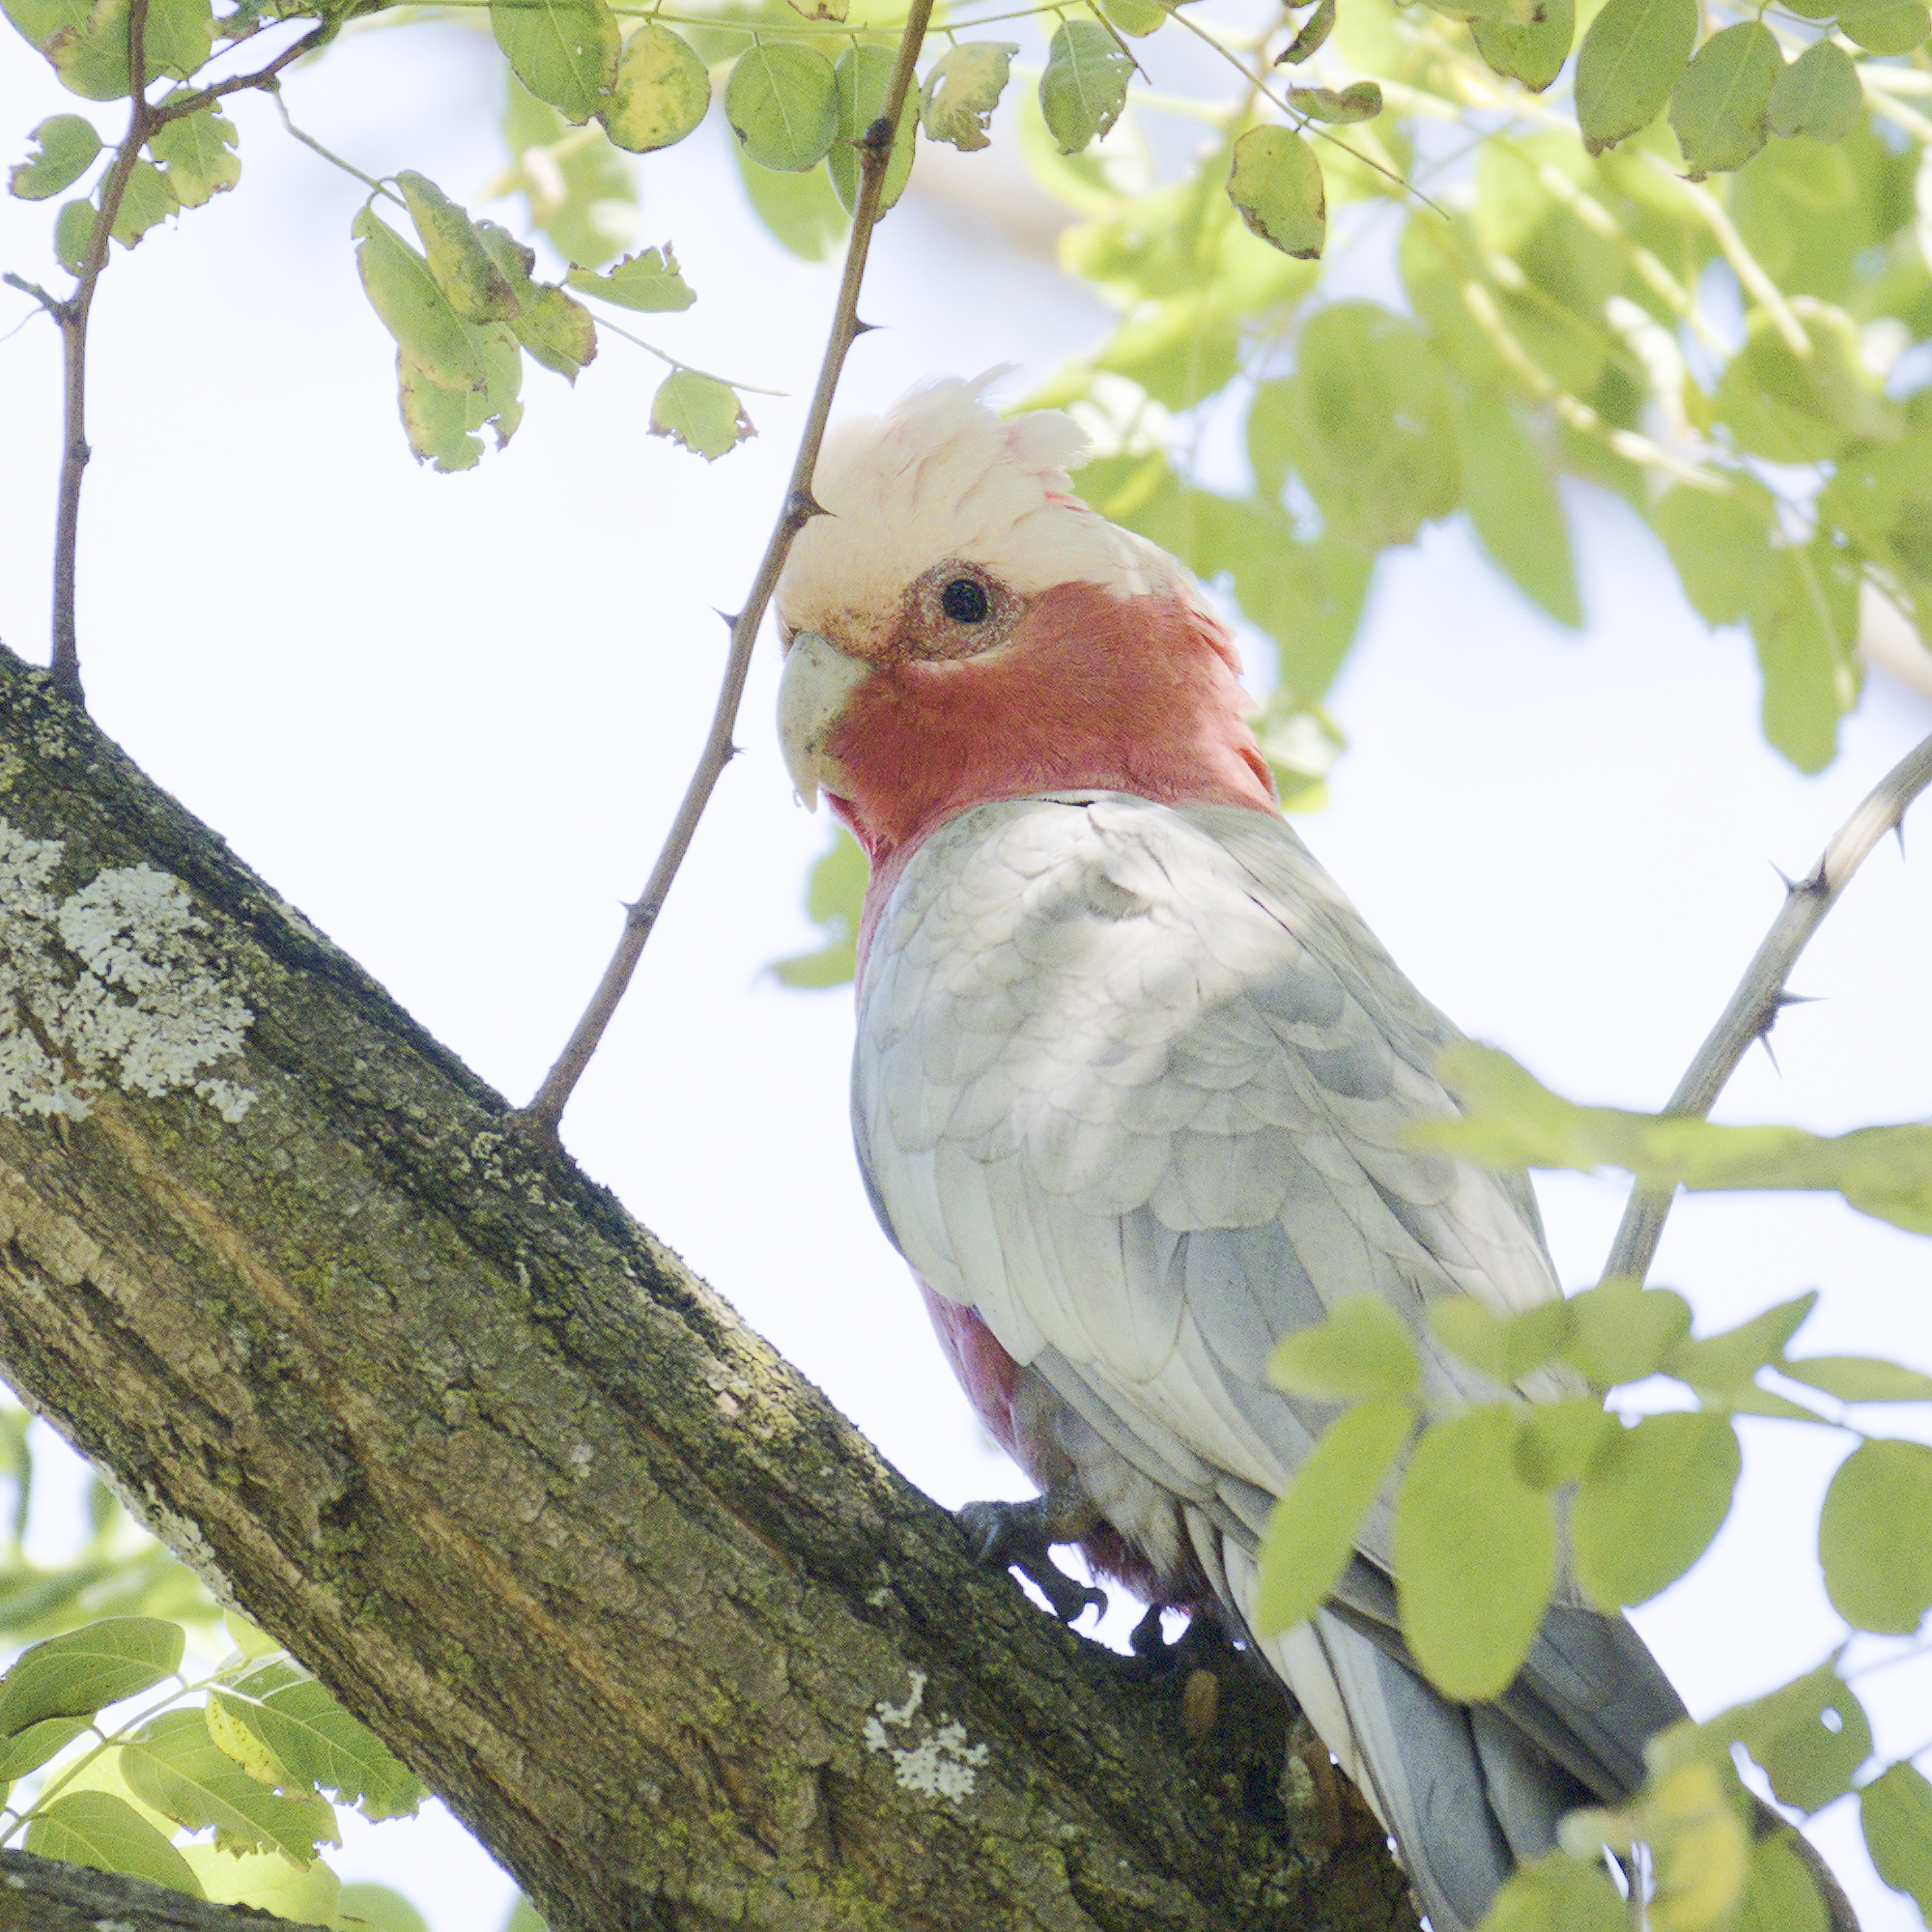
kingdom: Animalia
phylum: Chordata
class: Aves
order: Psittaciformes
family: Psittacidae
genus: Eolophus
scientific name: Eolophus roseicapilla
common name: Galah
